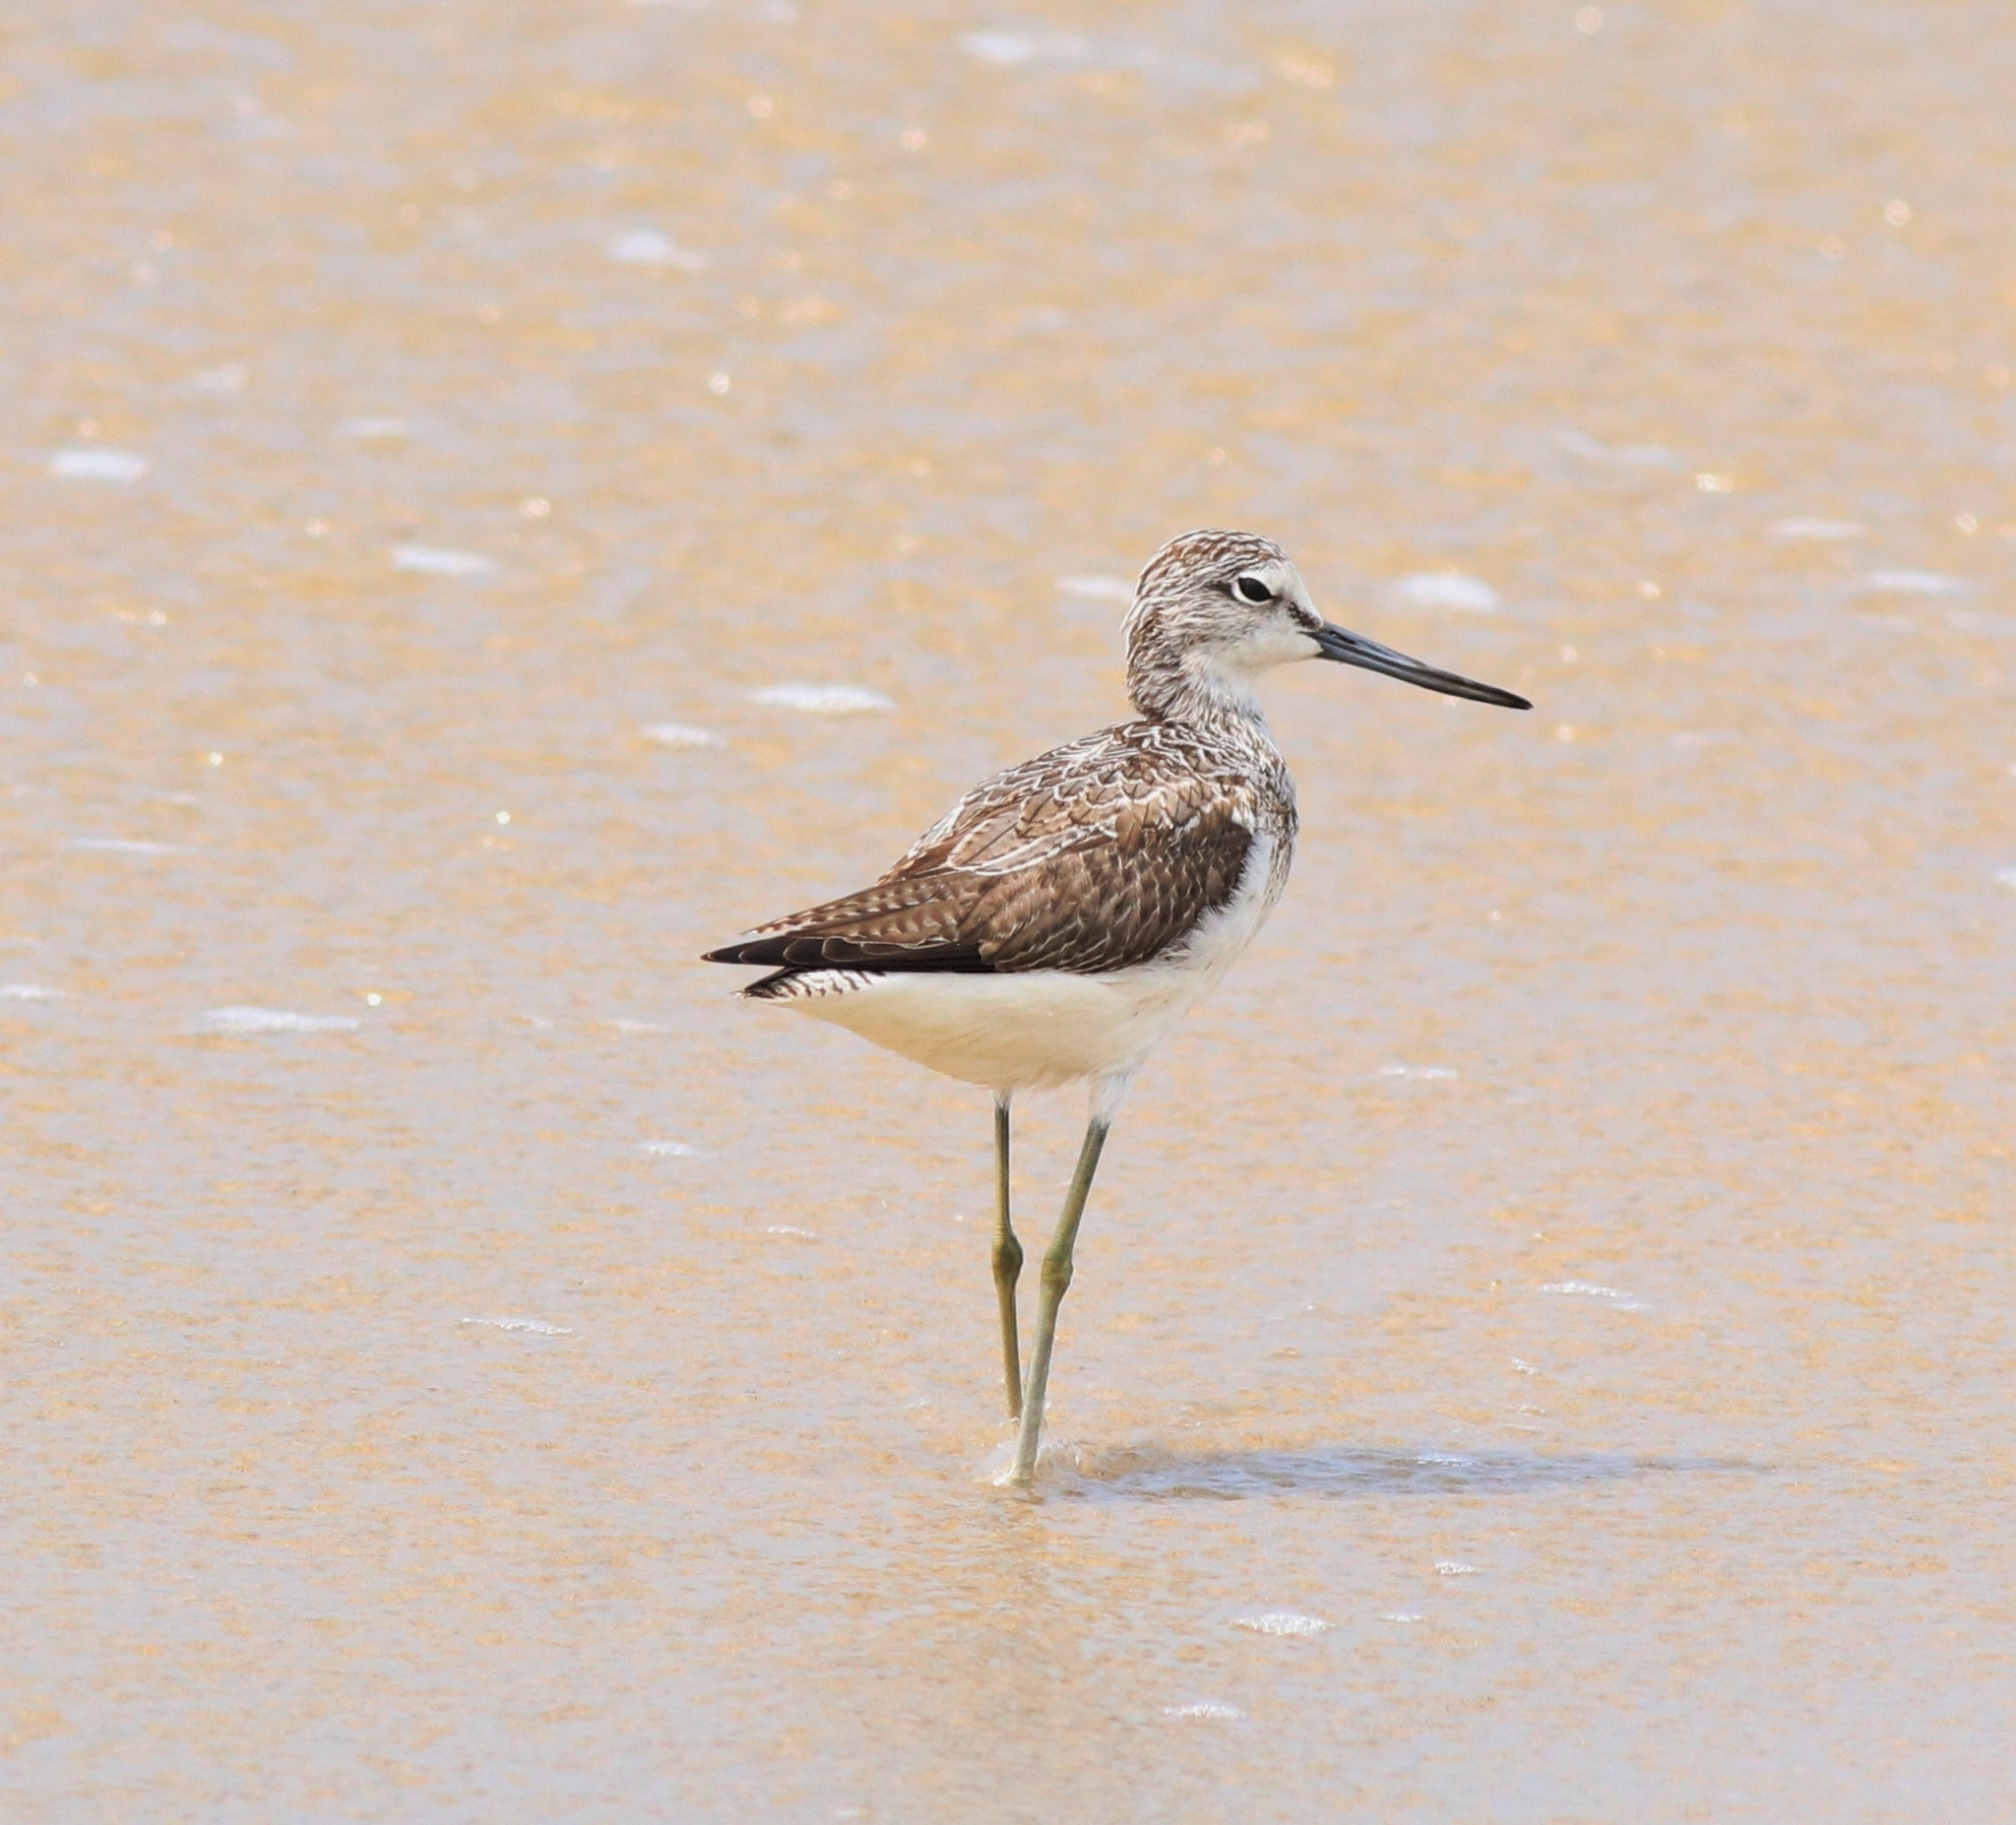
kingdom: Animalia
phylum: Chordata
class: Aves
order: Charadriiformes
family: Scolopacidae
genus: Tringa
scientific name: Tringa nebularia
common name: Common greenshank
